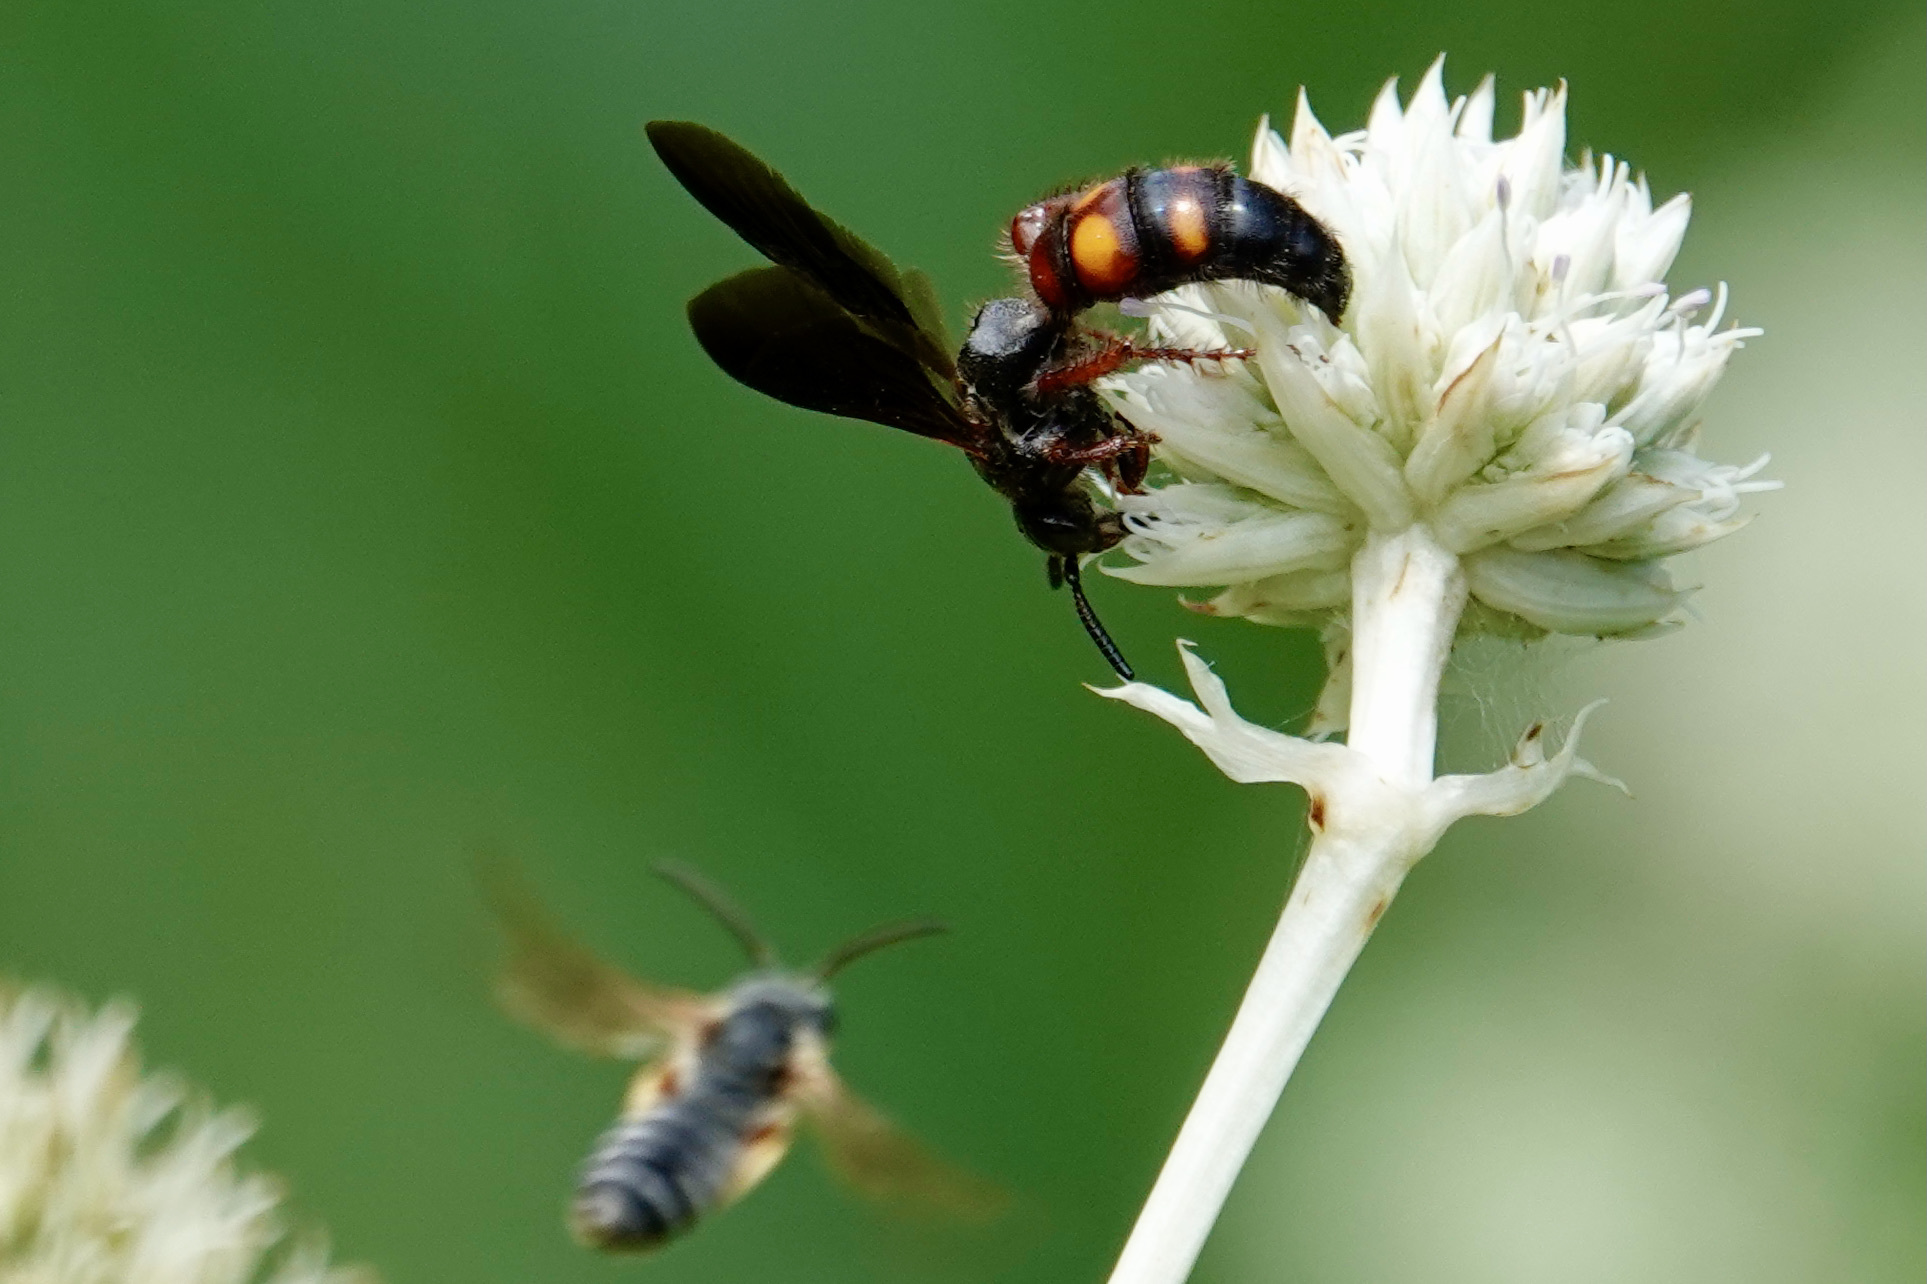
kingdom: Animalia
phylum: Arthropoda
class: Insecta
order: Hymenoptera
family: Scoliidae
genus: Scolia
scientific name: Scolia nobilitata
